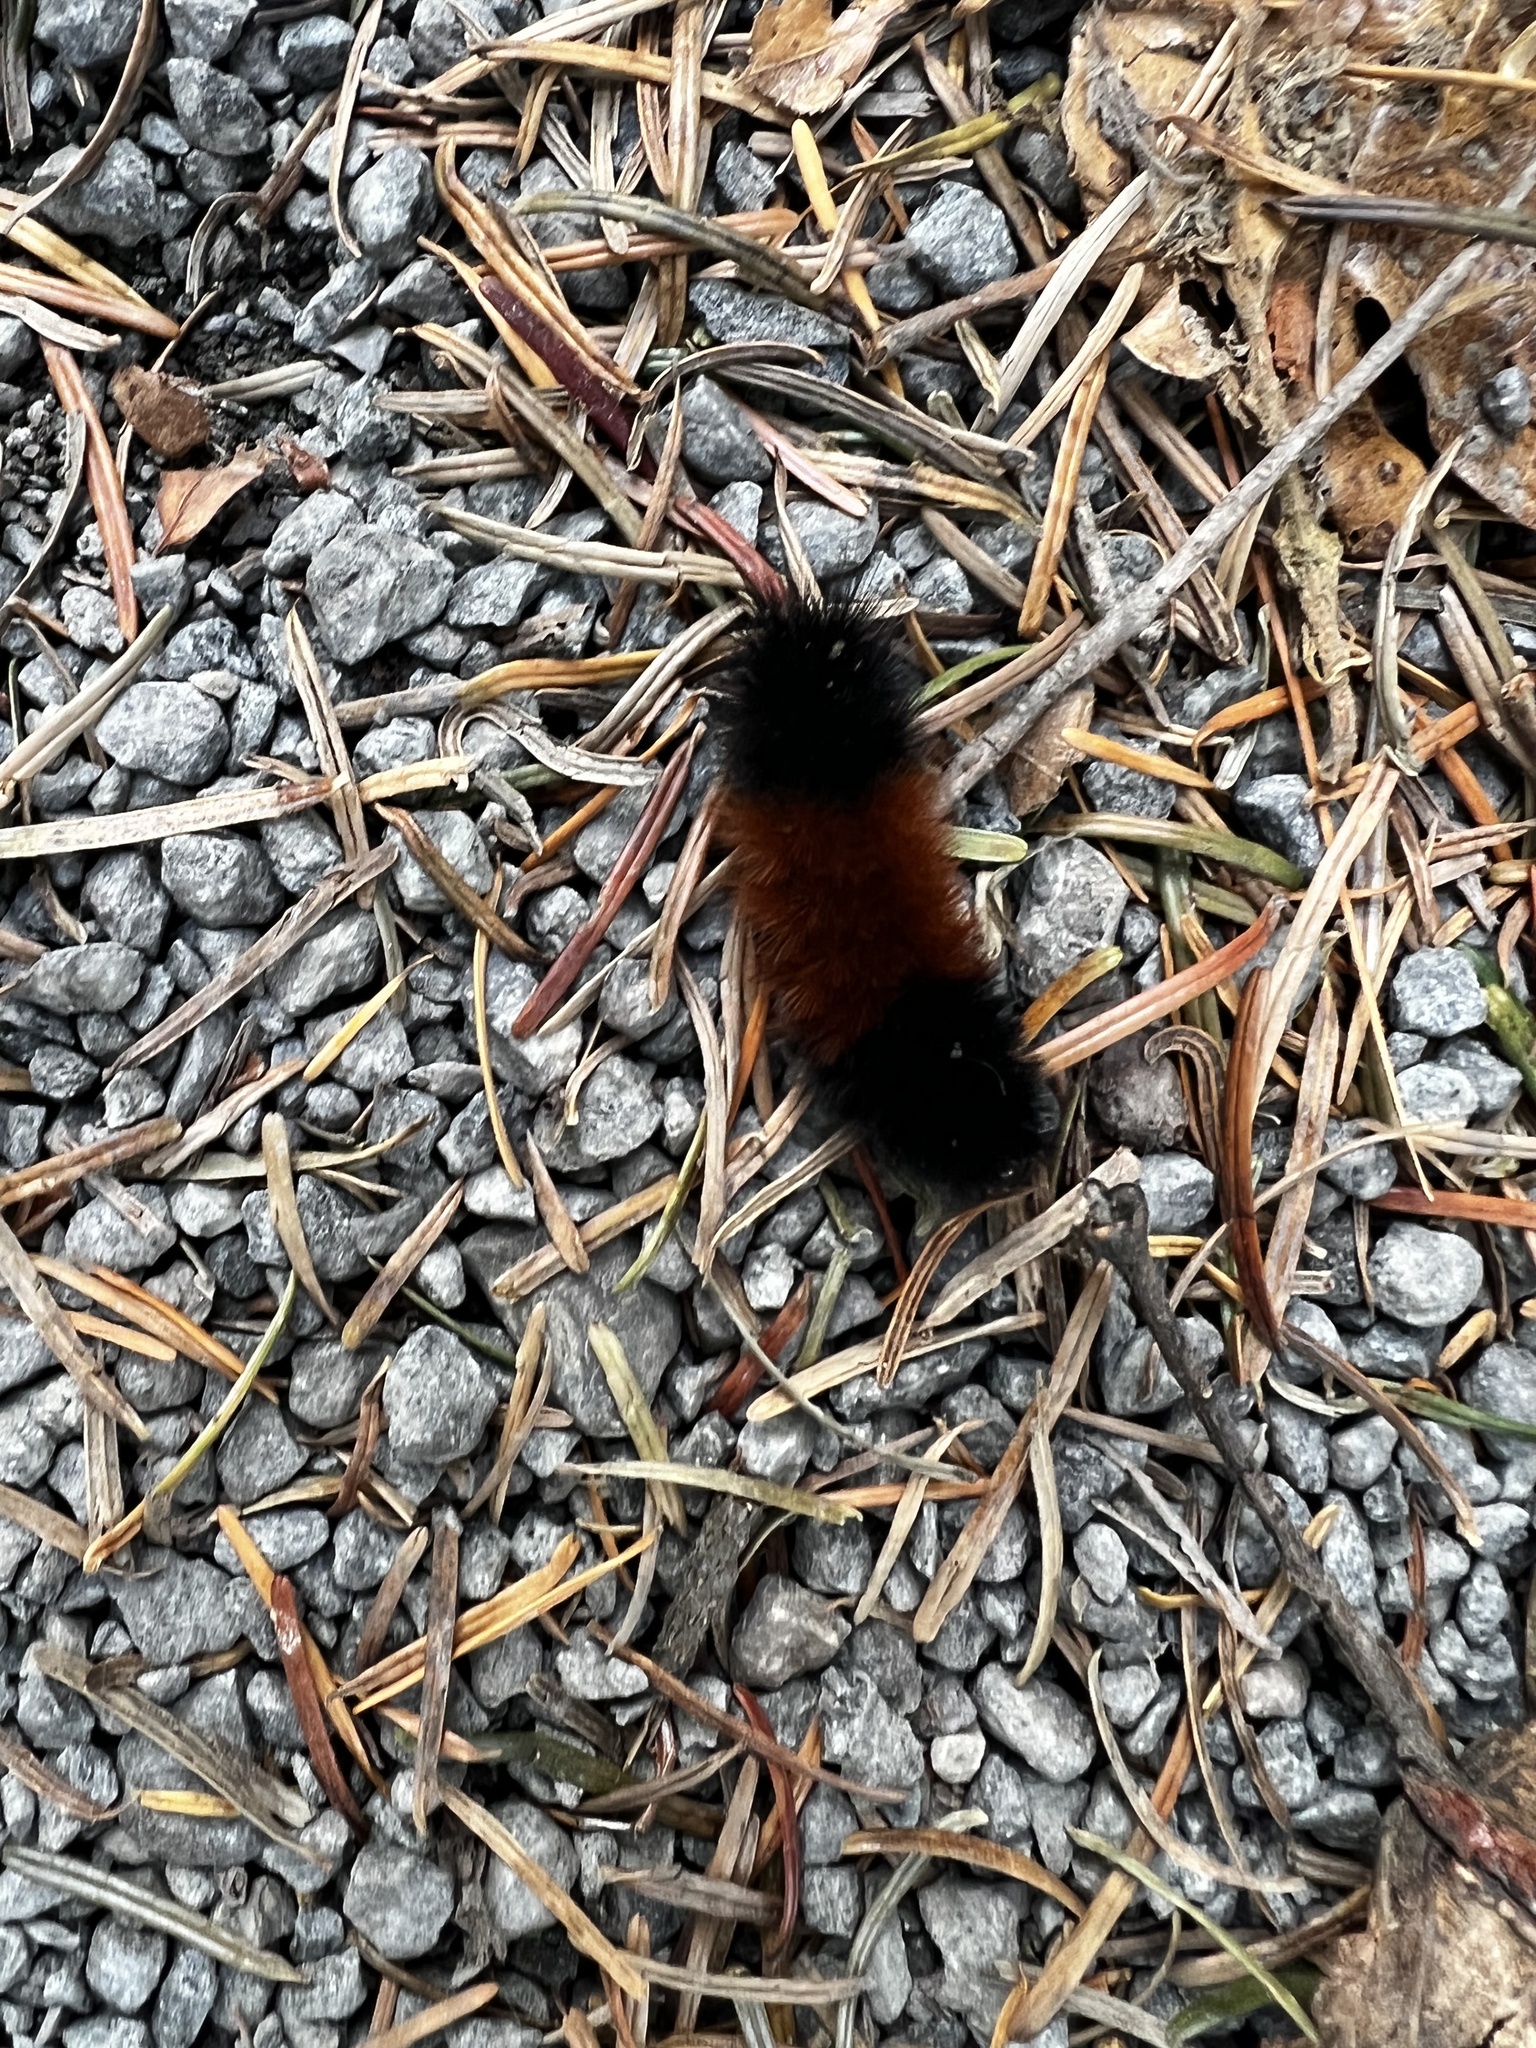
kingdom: Animalia
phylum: Arthropoda
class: Insecta
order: Lepidoptera
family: Erebidae
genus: Pyrrharctia
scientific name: Pyrrharctia isabella
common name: Isabella tiger moth
